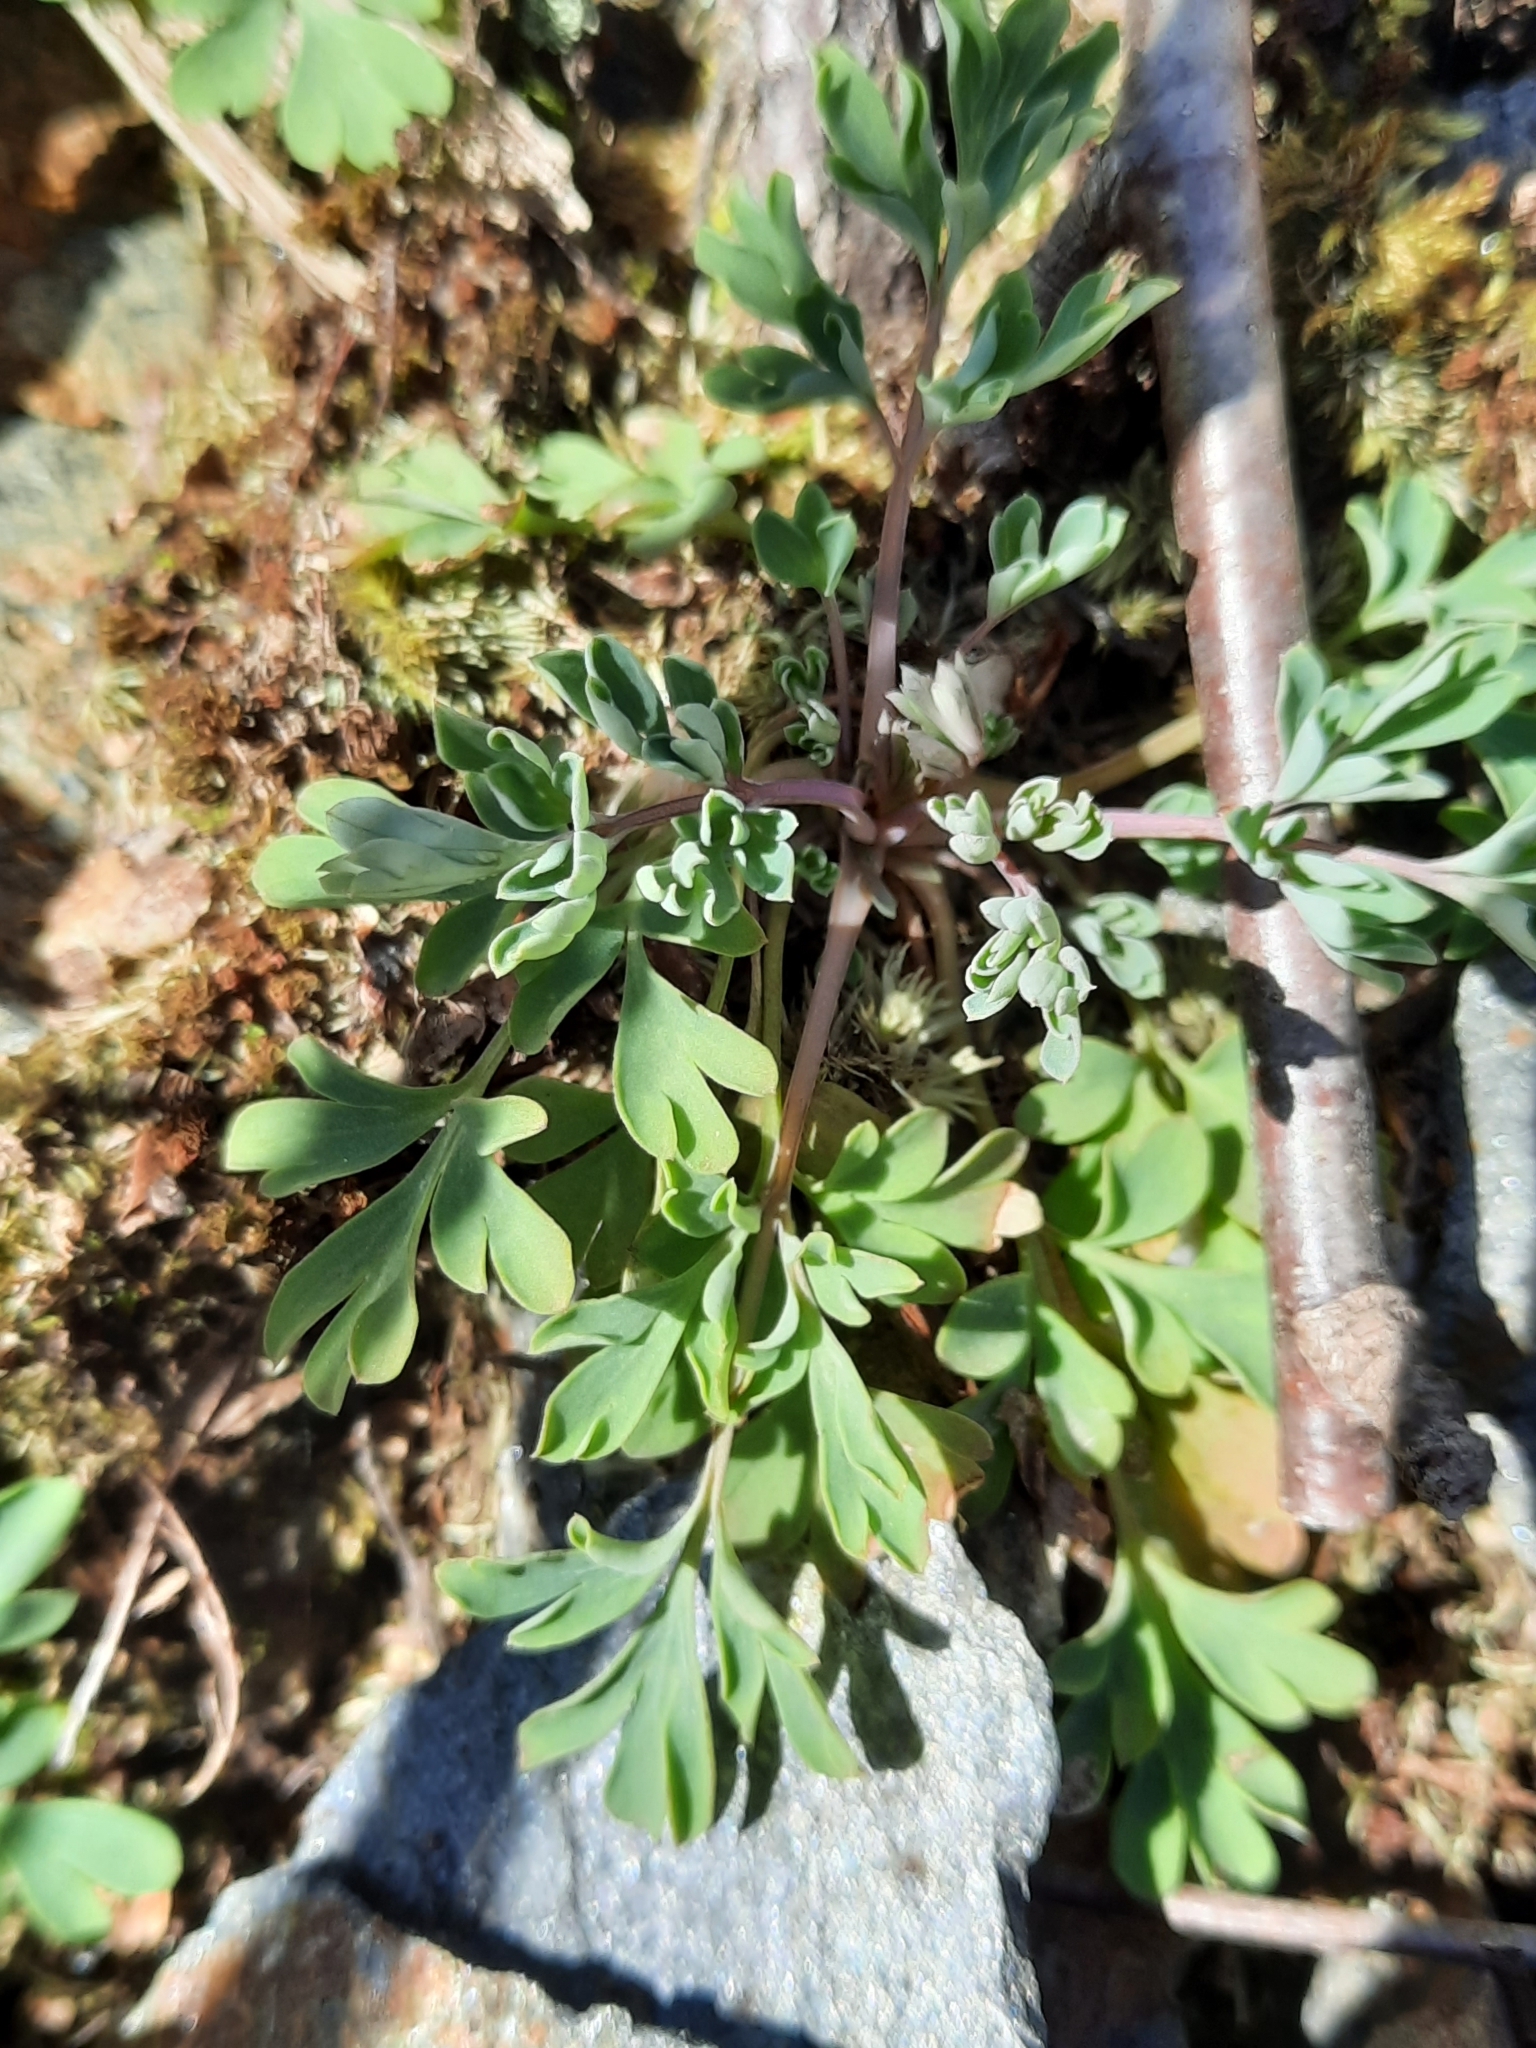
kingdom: Plantae
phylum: Tracheophyta
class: Magnoliopsida
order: Ranunculales
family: Papaveraceae
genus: Capnoides
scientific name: Capnoides sempervirens
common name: Rock harlequin
